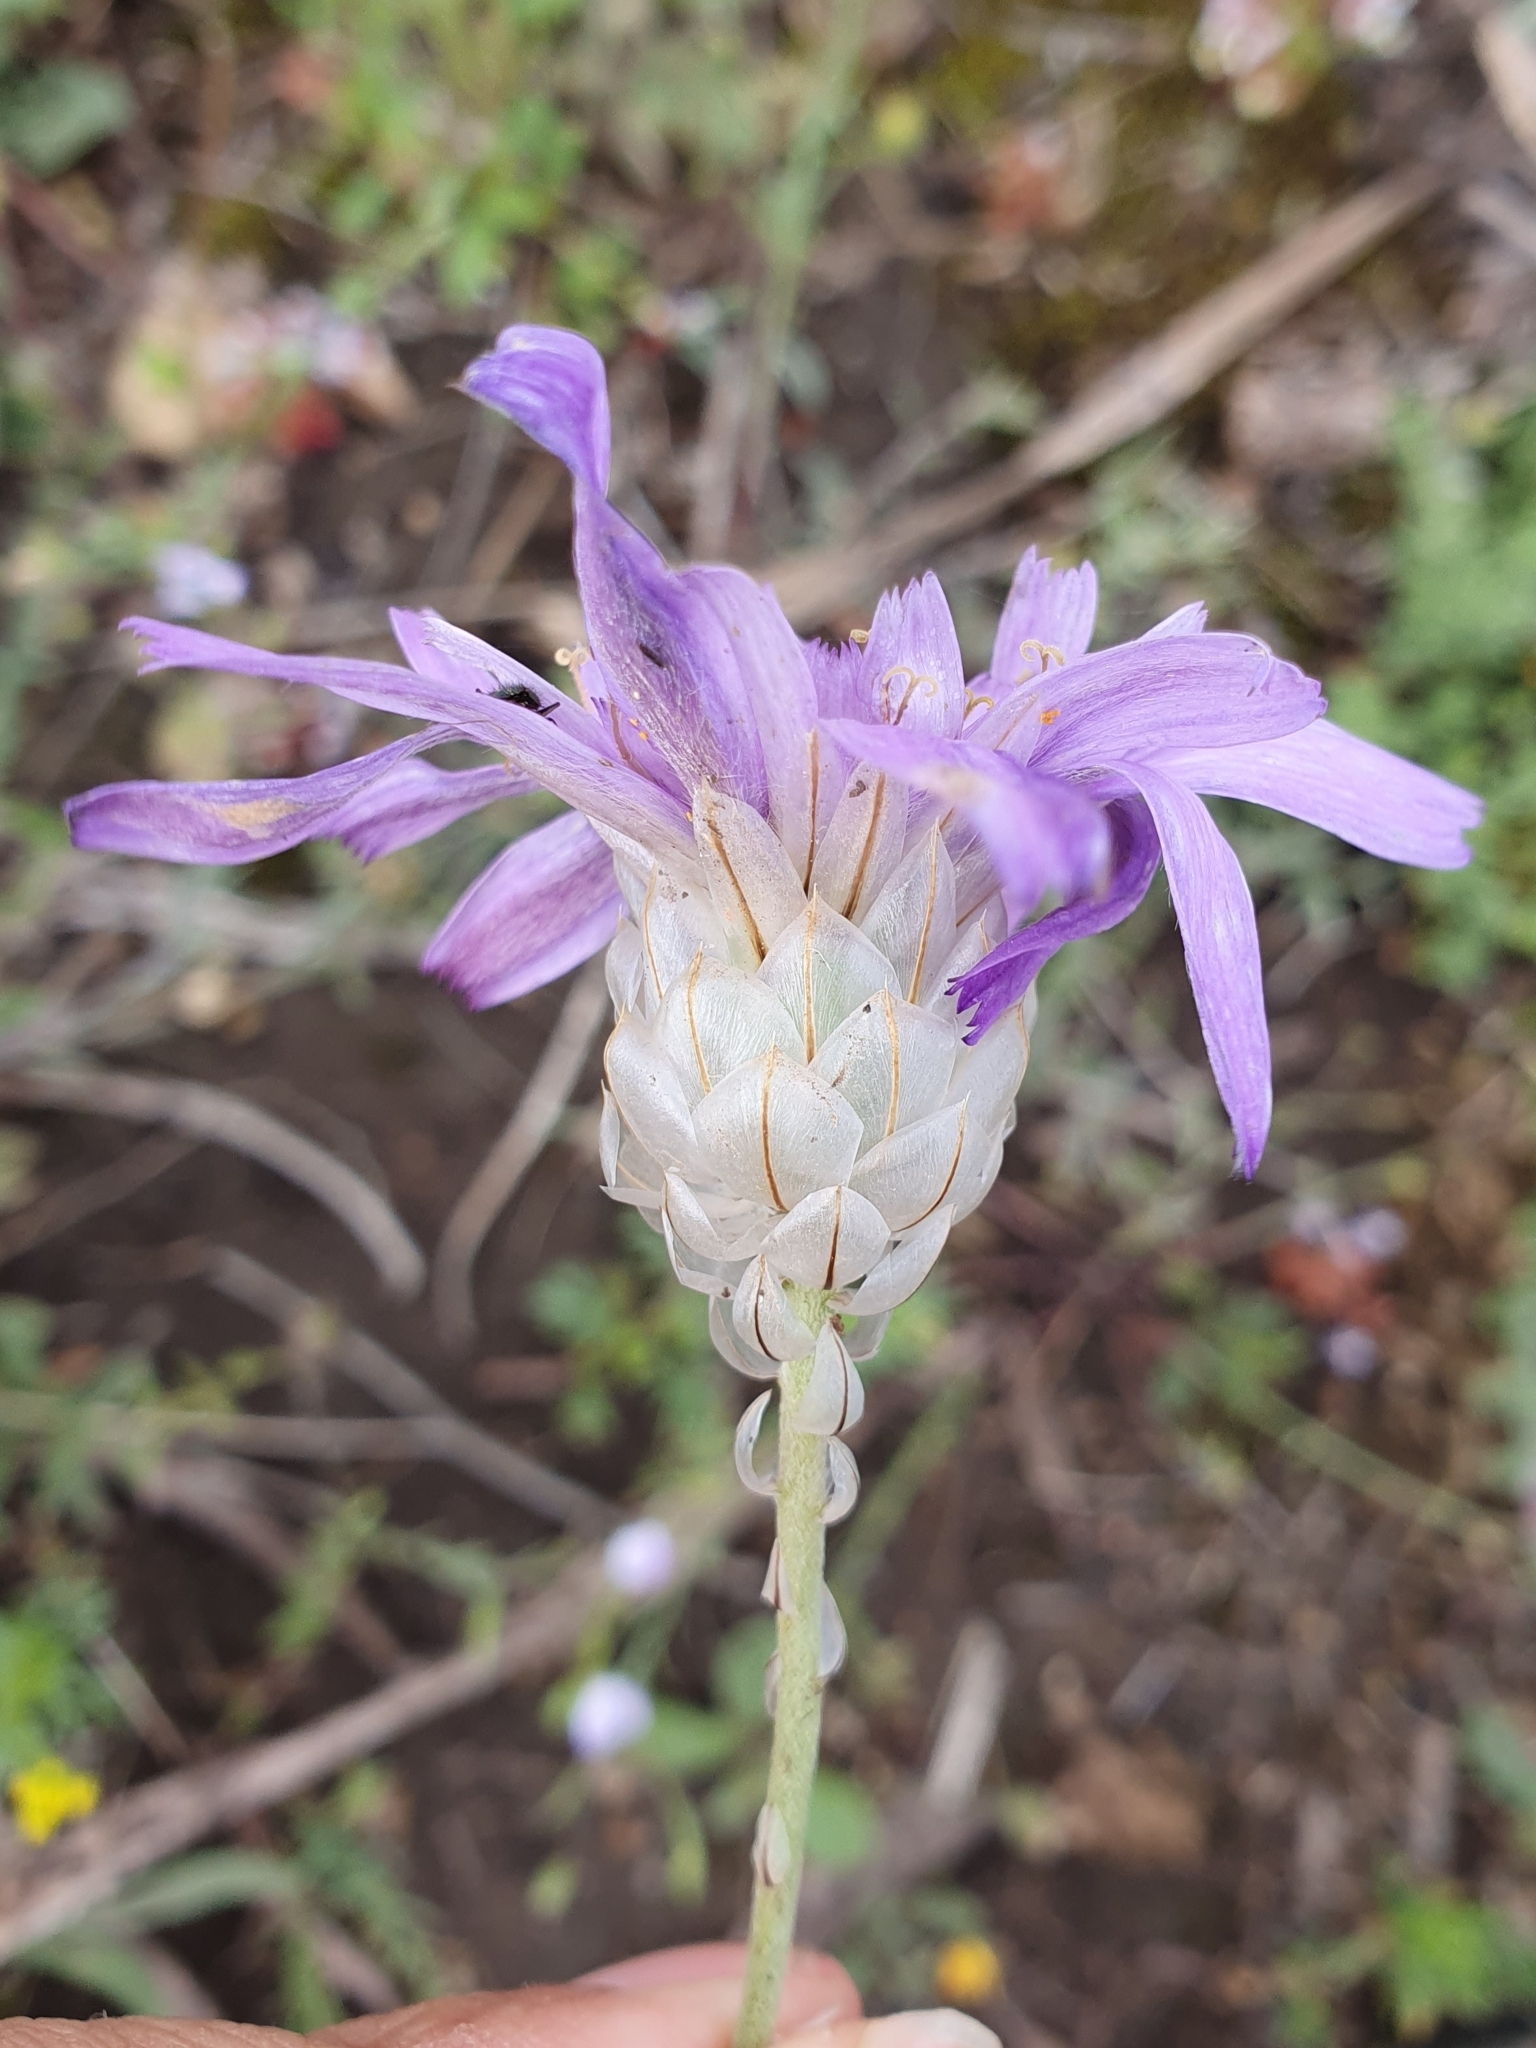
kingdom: Plantae
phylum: Tracheophyta
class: Magnoliopsida
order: Asterales
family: Asteraceae
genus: Catananche
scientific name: Catananche caerulea
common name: Blue cupidone
